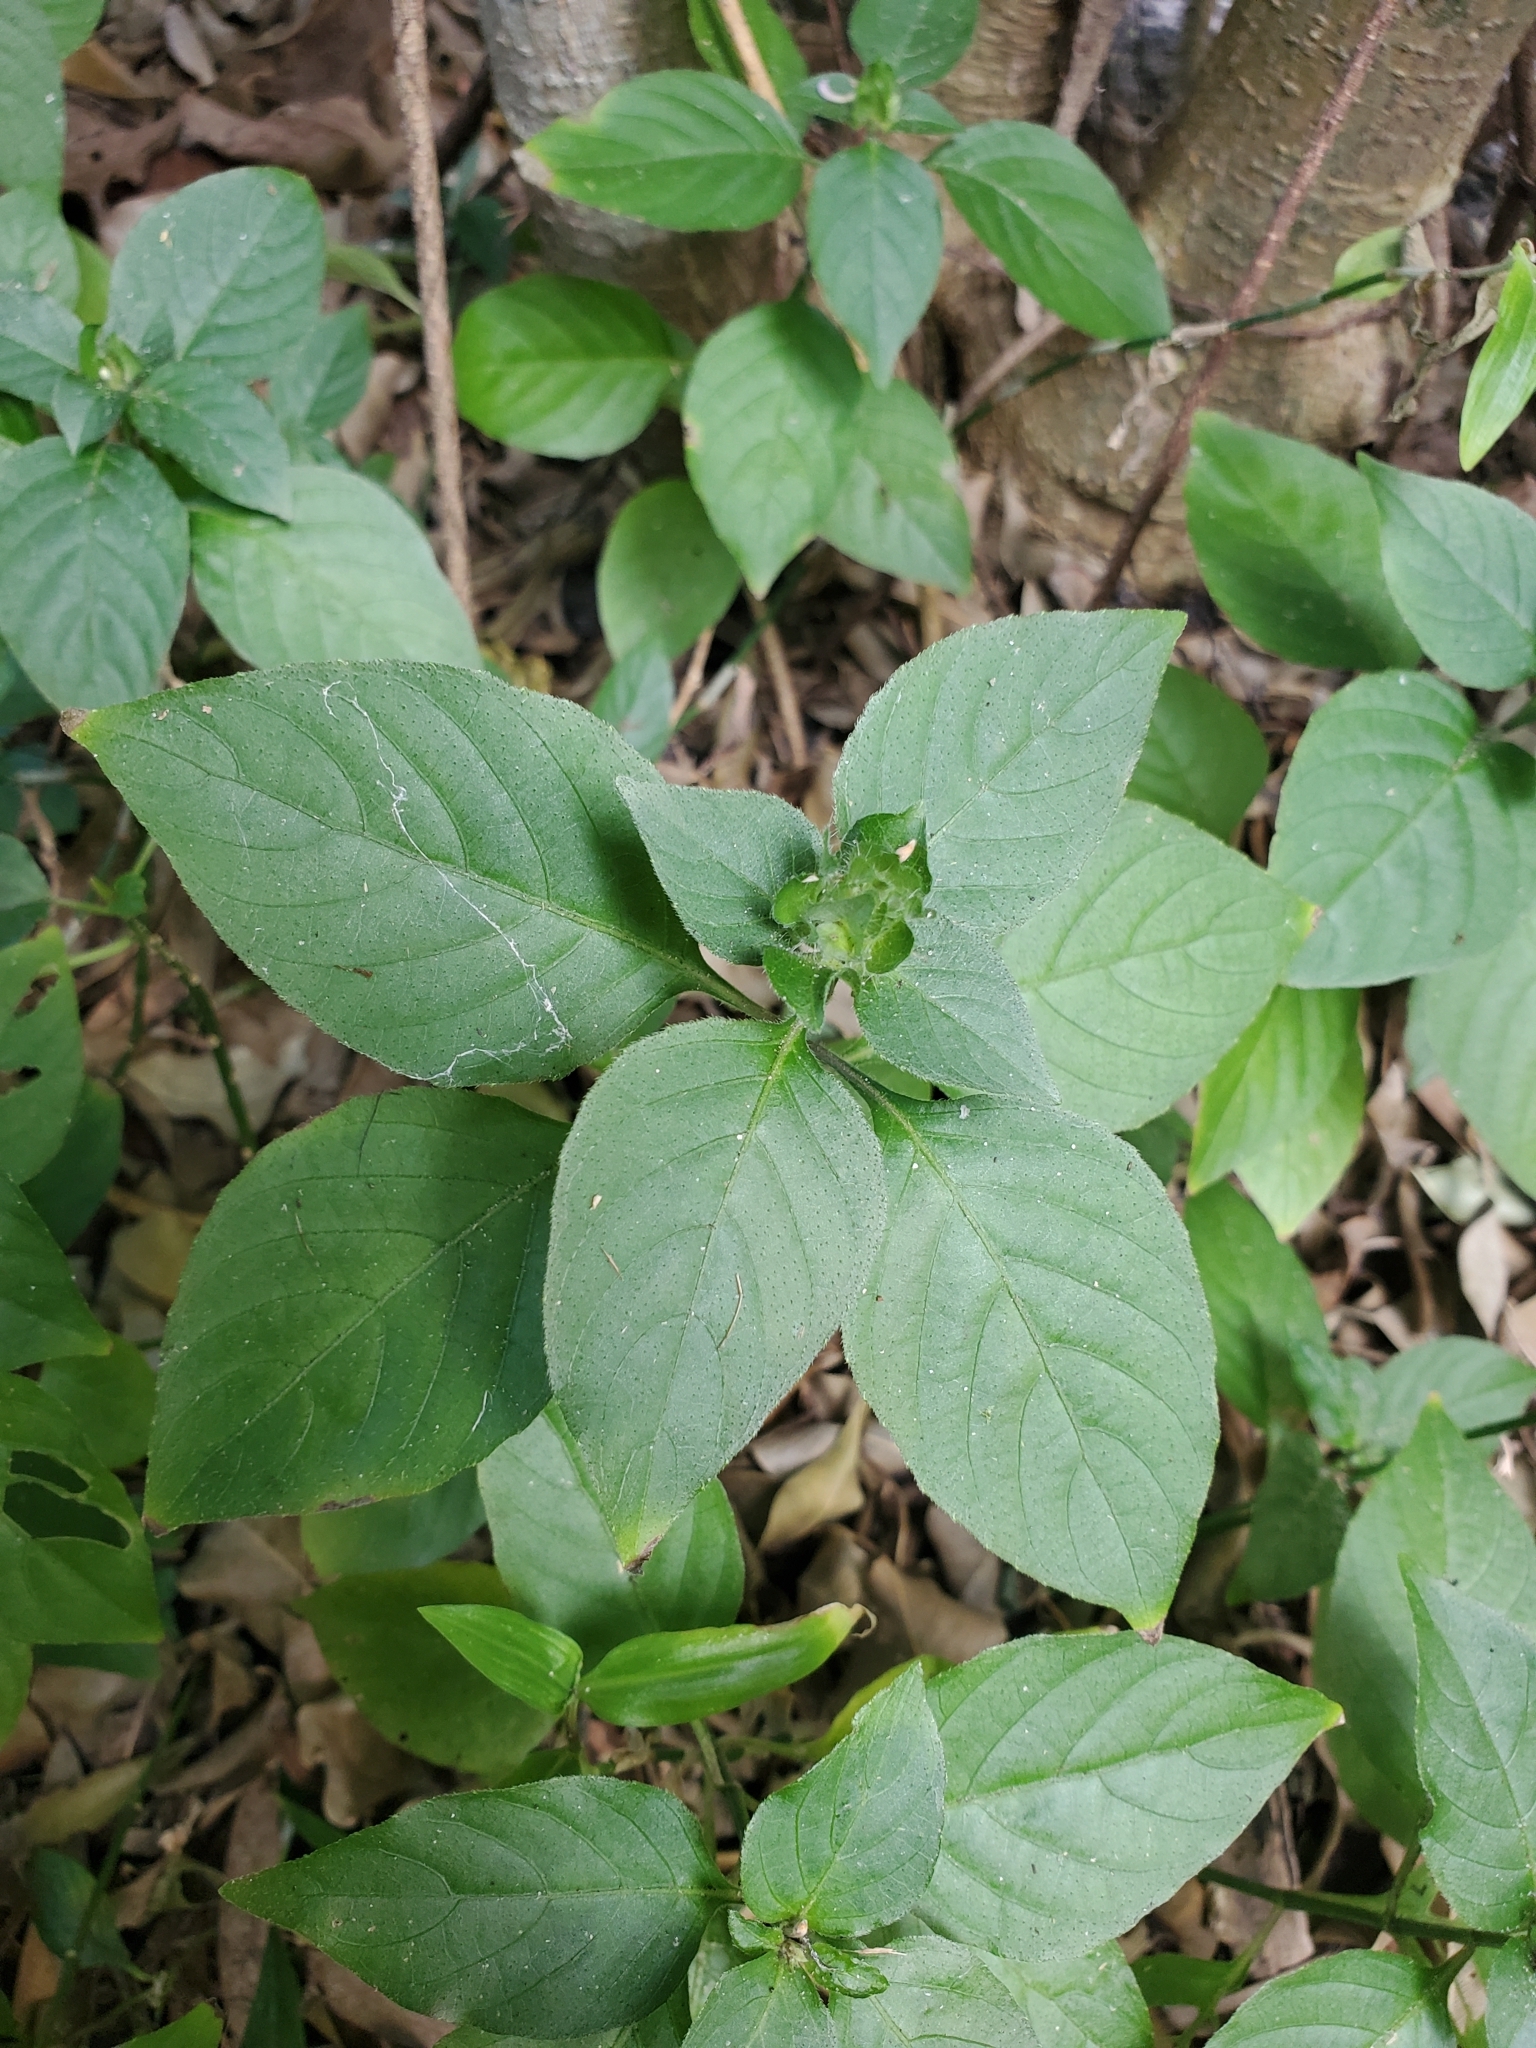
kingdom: Plantae
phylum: Tracheophyta
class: Magnoliopsida
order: Lamiales
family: Acanthaceae
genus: Ruellia
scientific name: Ruellia blechum
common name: Browne's blechum
